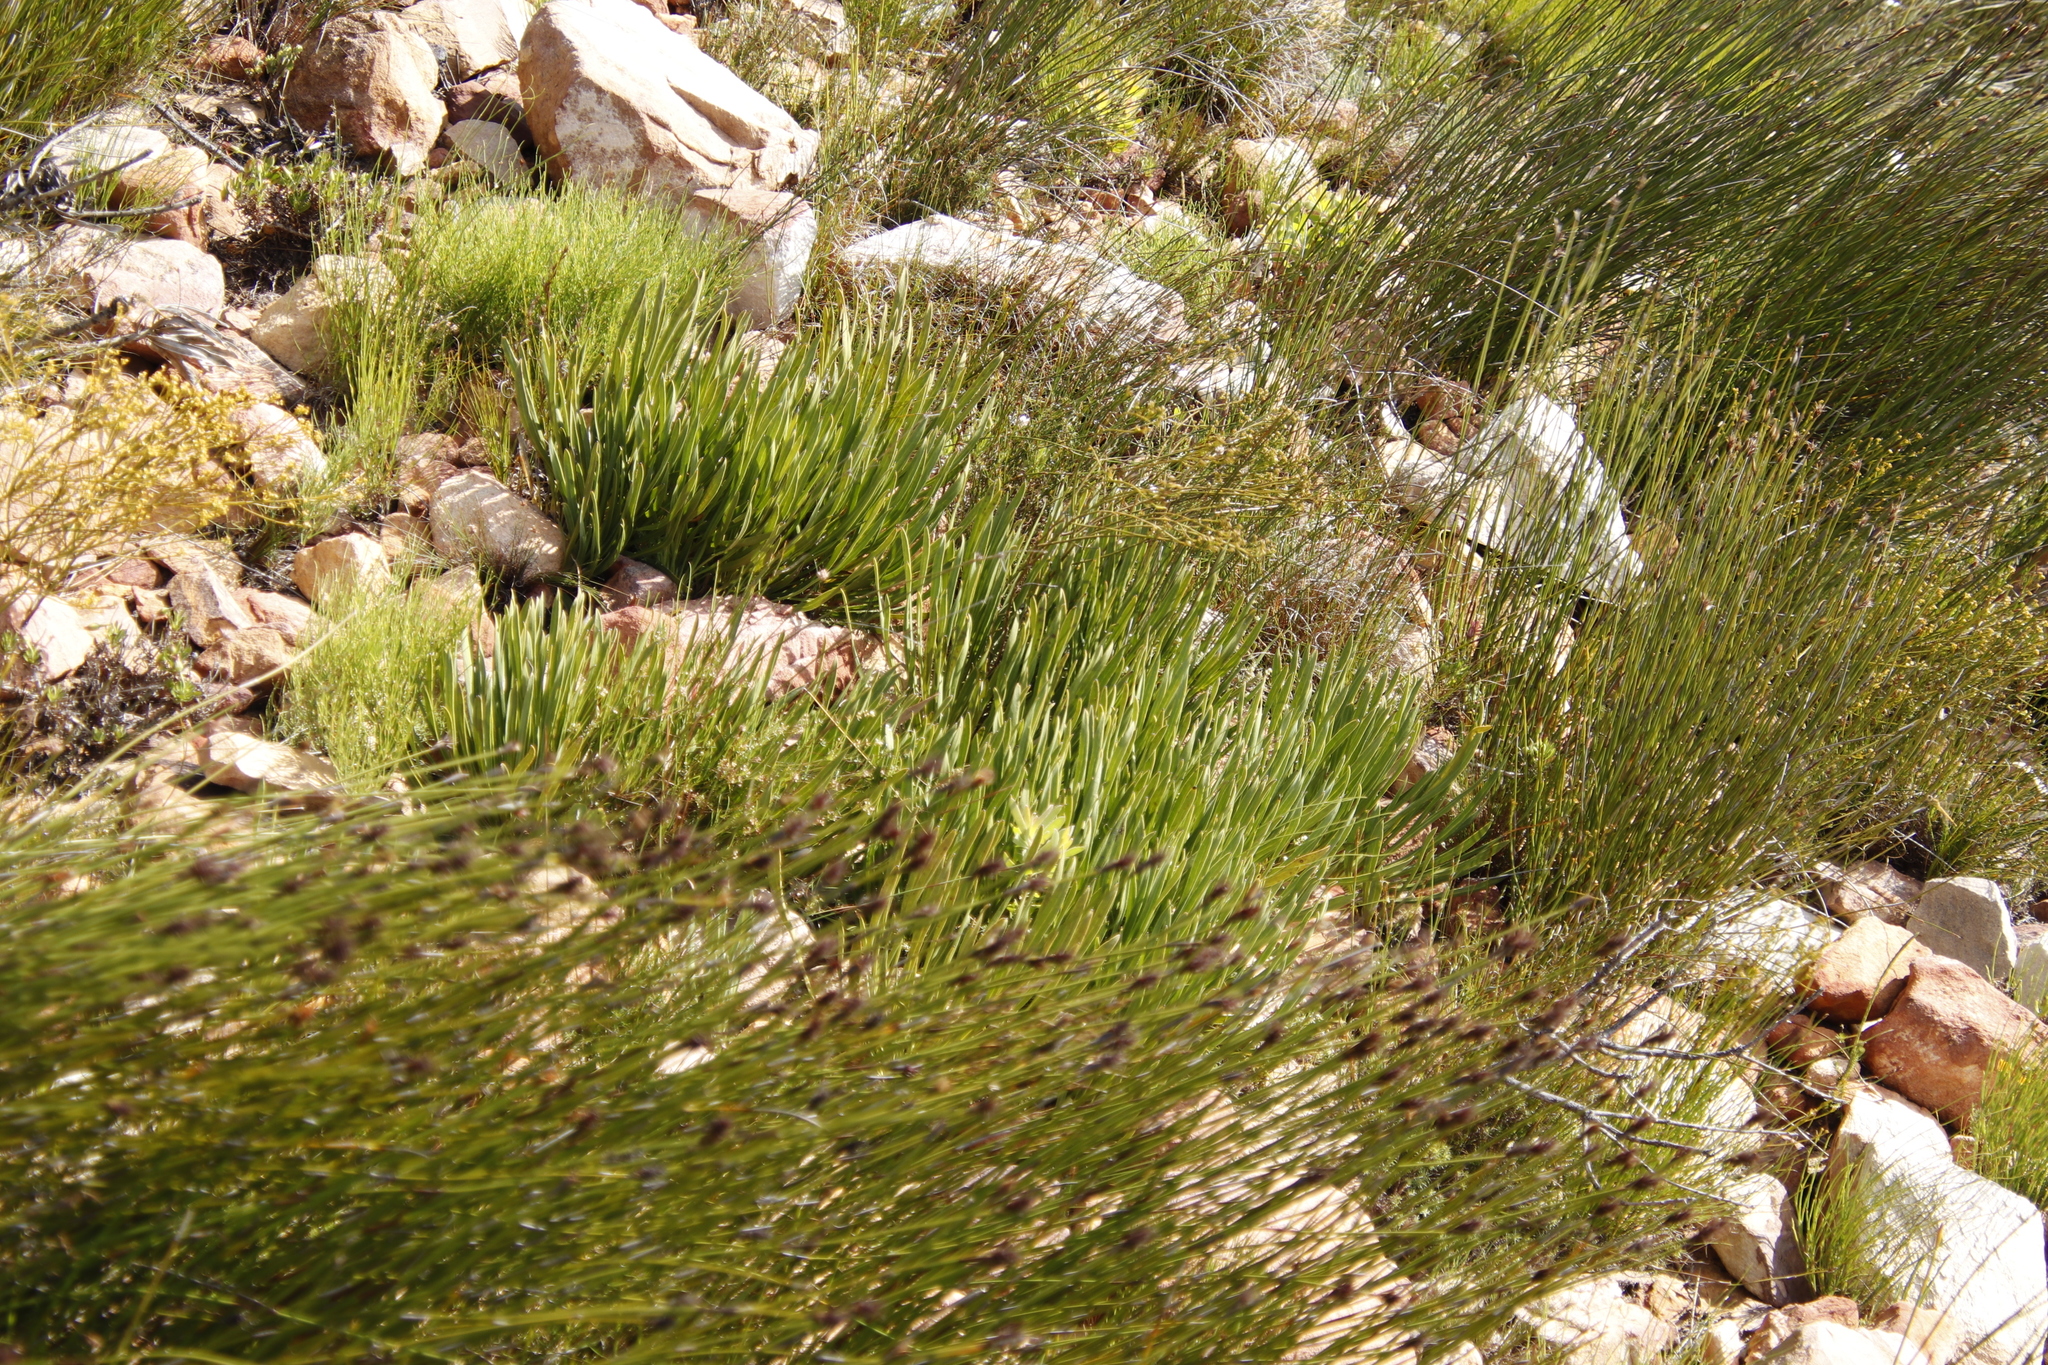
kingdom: Plantae
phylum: Tracheophyta
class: Magnoliopsida
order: Proteales
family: Proteaceae
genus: Protea
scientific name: Protea scabra
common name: Sandpaper-leaf sugarbush
